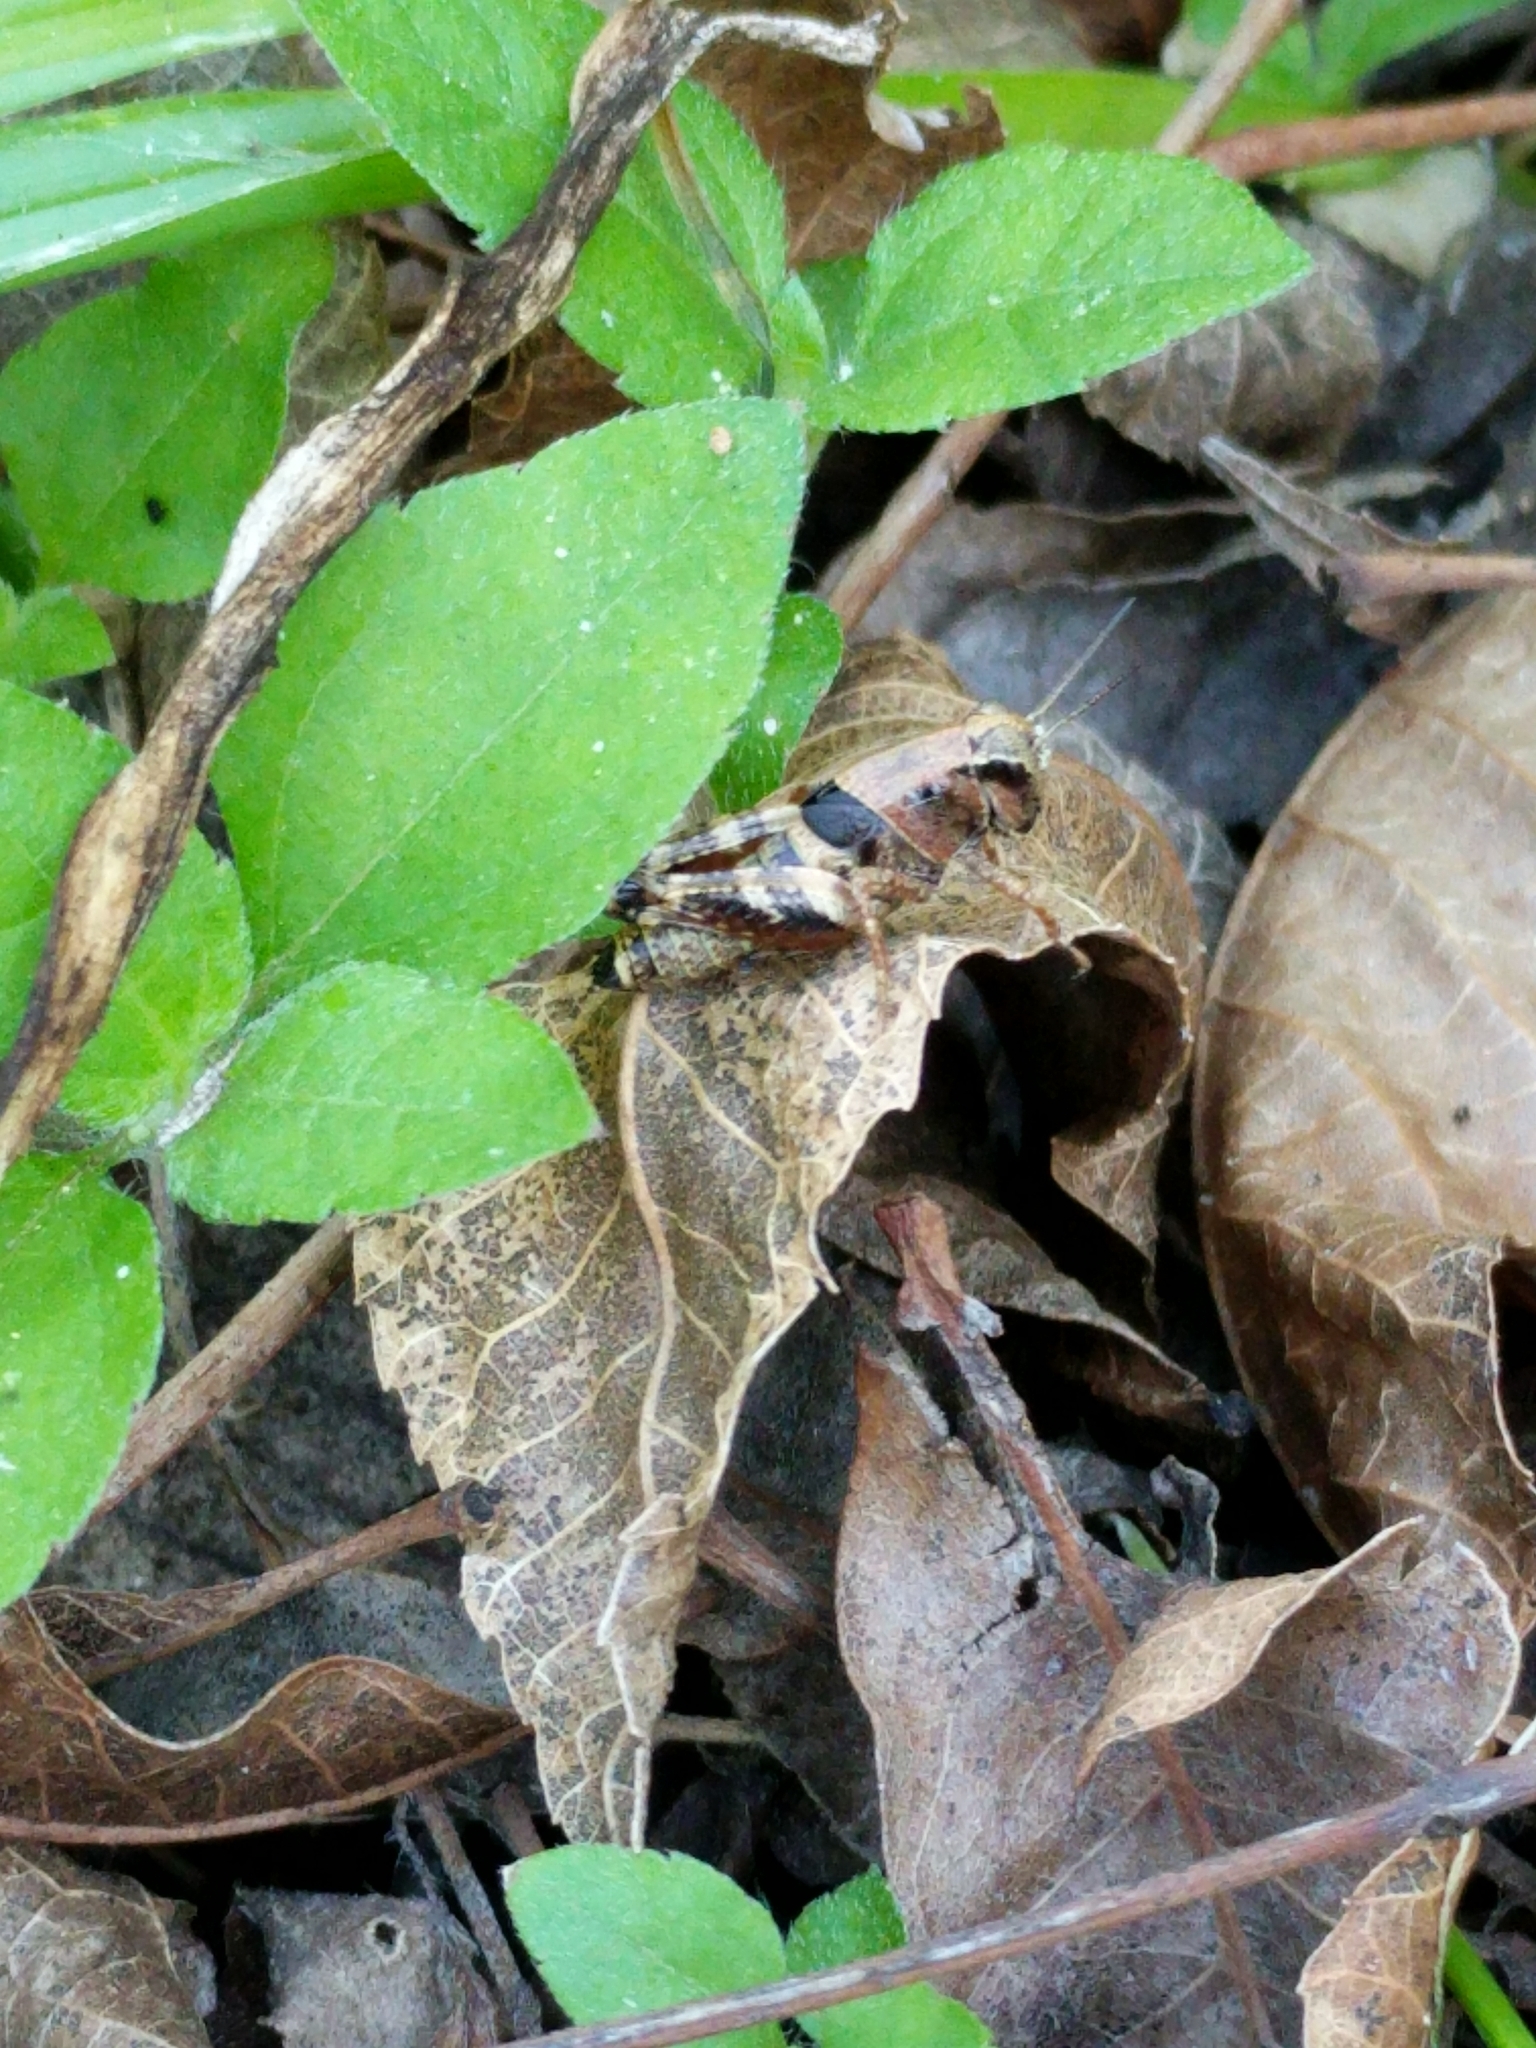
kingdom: Animalia
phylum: Arthropoda
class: Insecta
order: Orthoptera
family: Acrididae
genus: Aidemona
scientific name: Aidemona azteca
